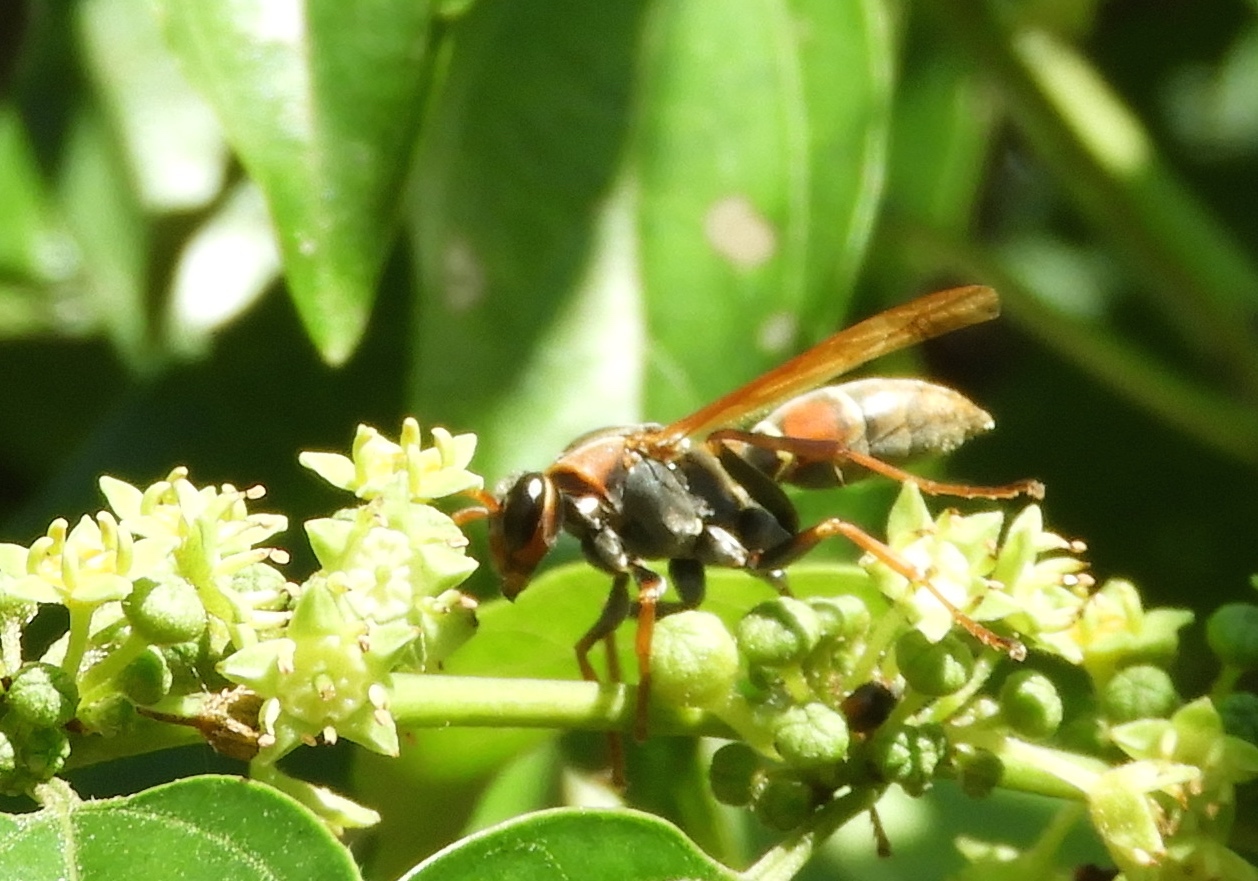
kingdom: Animalia
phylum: Arthropoda
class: Insecta
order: Hymenoptera
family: Eumenidae
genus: Polistes
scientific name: Polistes pacificus
